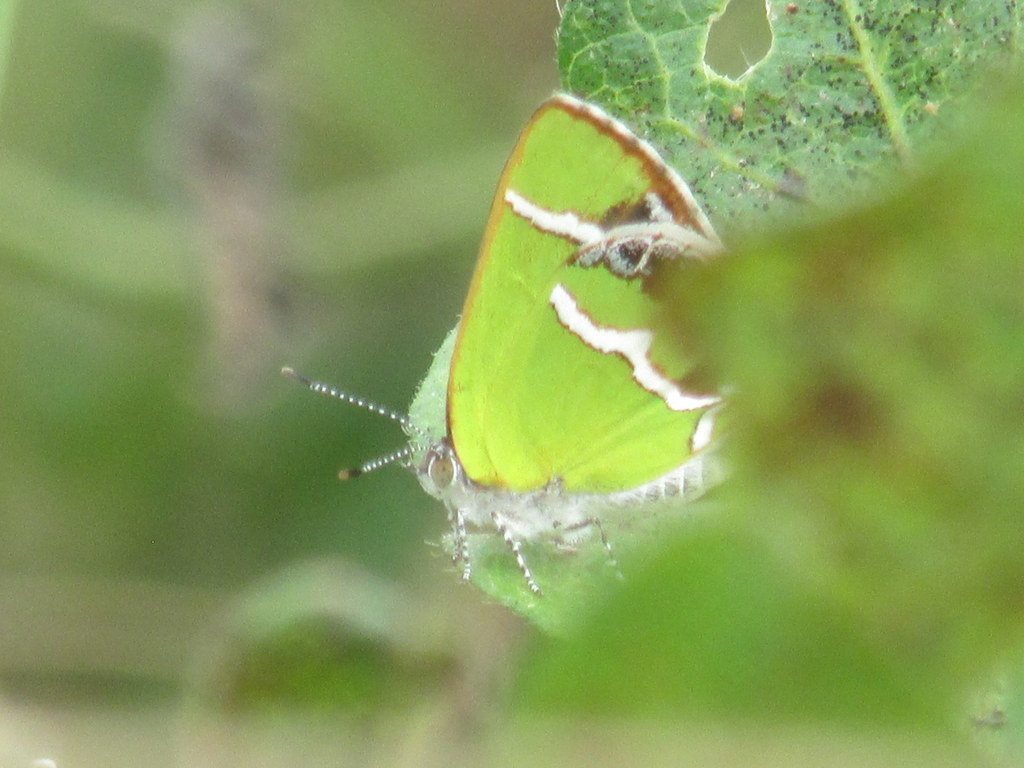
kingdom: Animalia
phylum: Arthropoda
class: Insecta
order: Lepidoptera
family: Lycaenidae
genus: Chlorostrymon
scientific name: Chlorostrymon simaethis
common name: Silver-banded hairstreak
